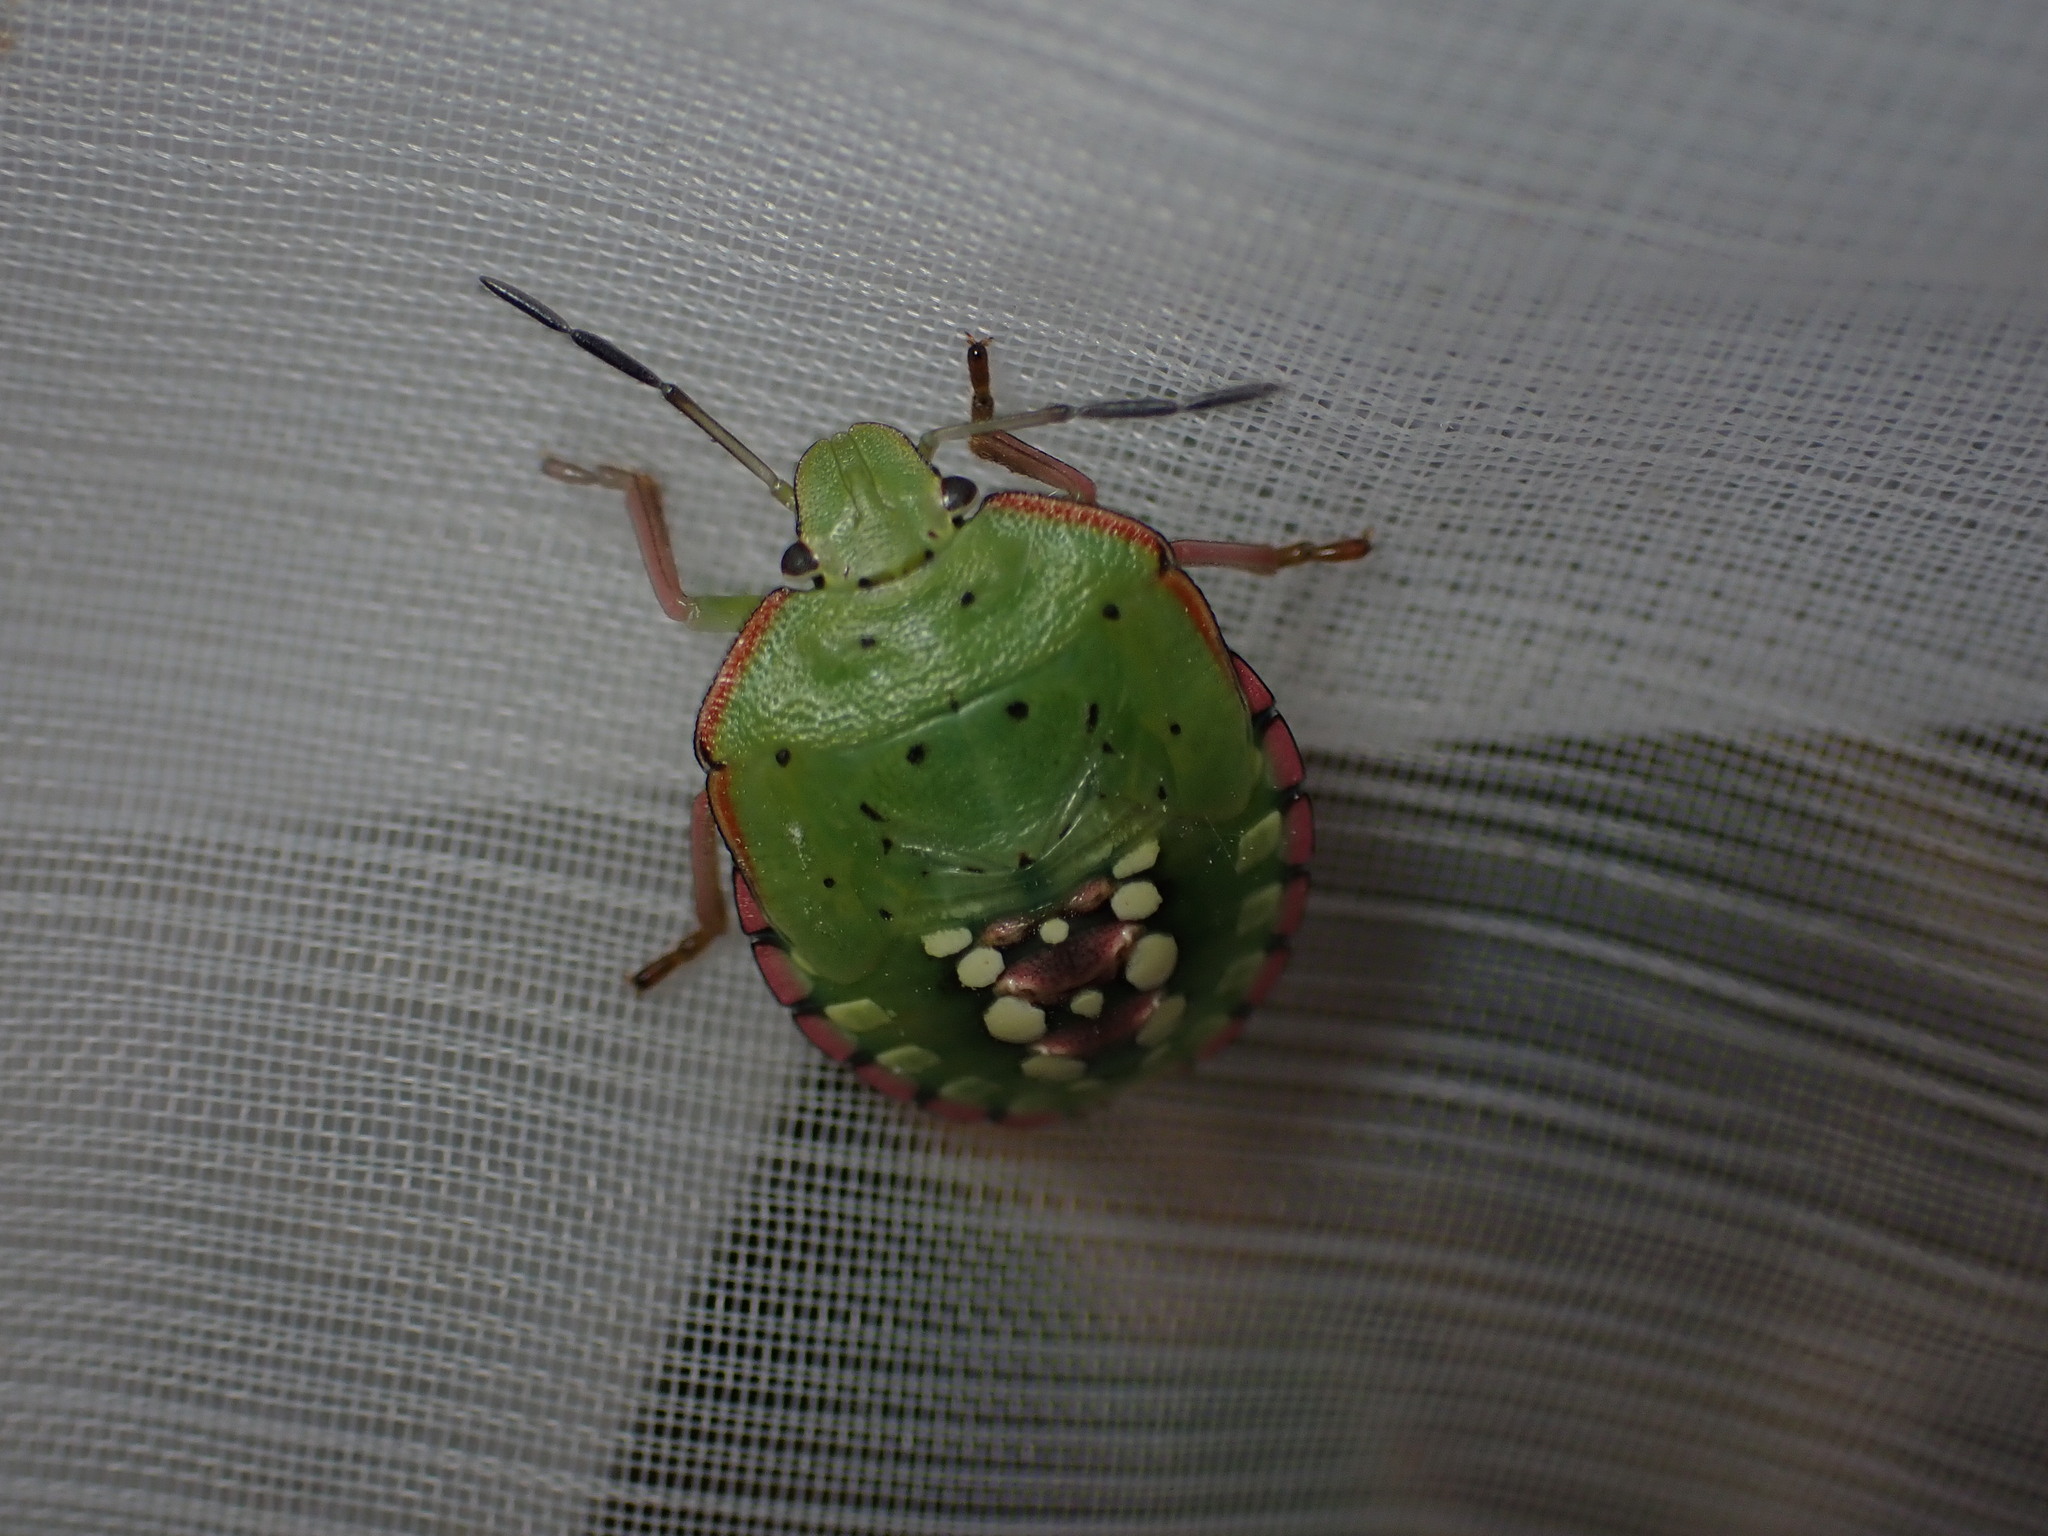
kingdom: Animalia
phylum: Arthropoda
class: Insecta
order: Hemiptera
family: Pentatomidae
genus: Nezara
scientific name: Nezara viridula
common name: Southern green stink bug
